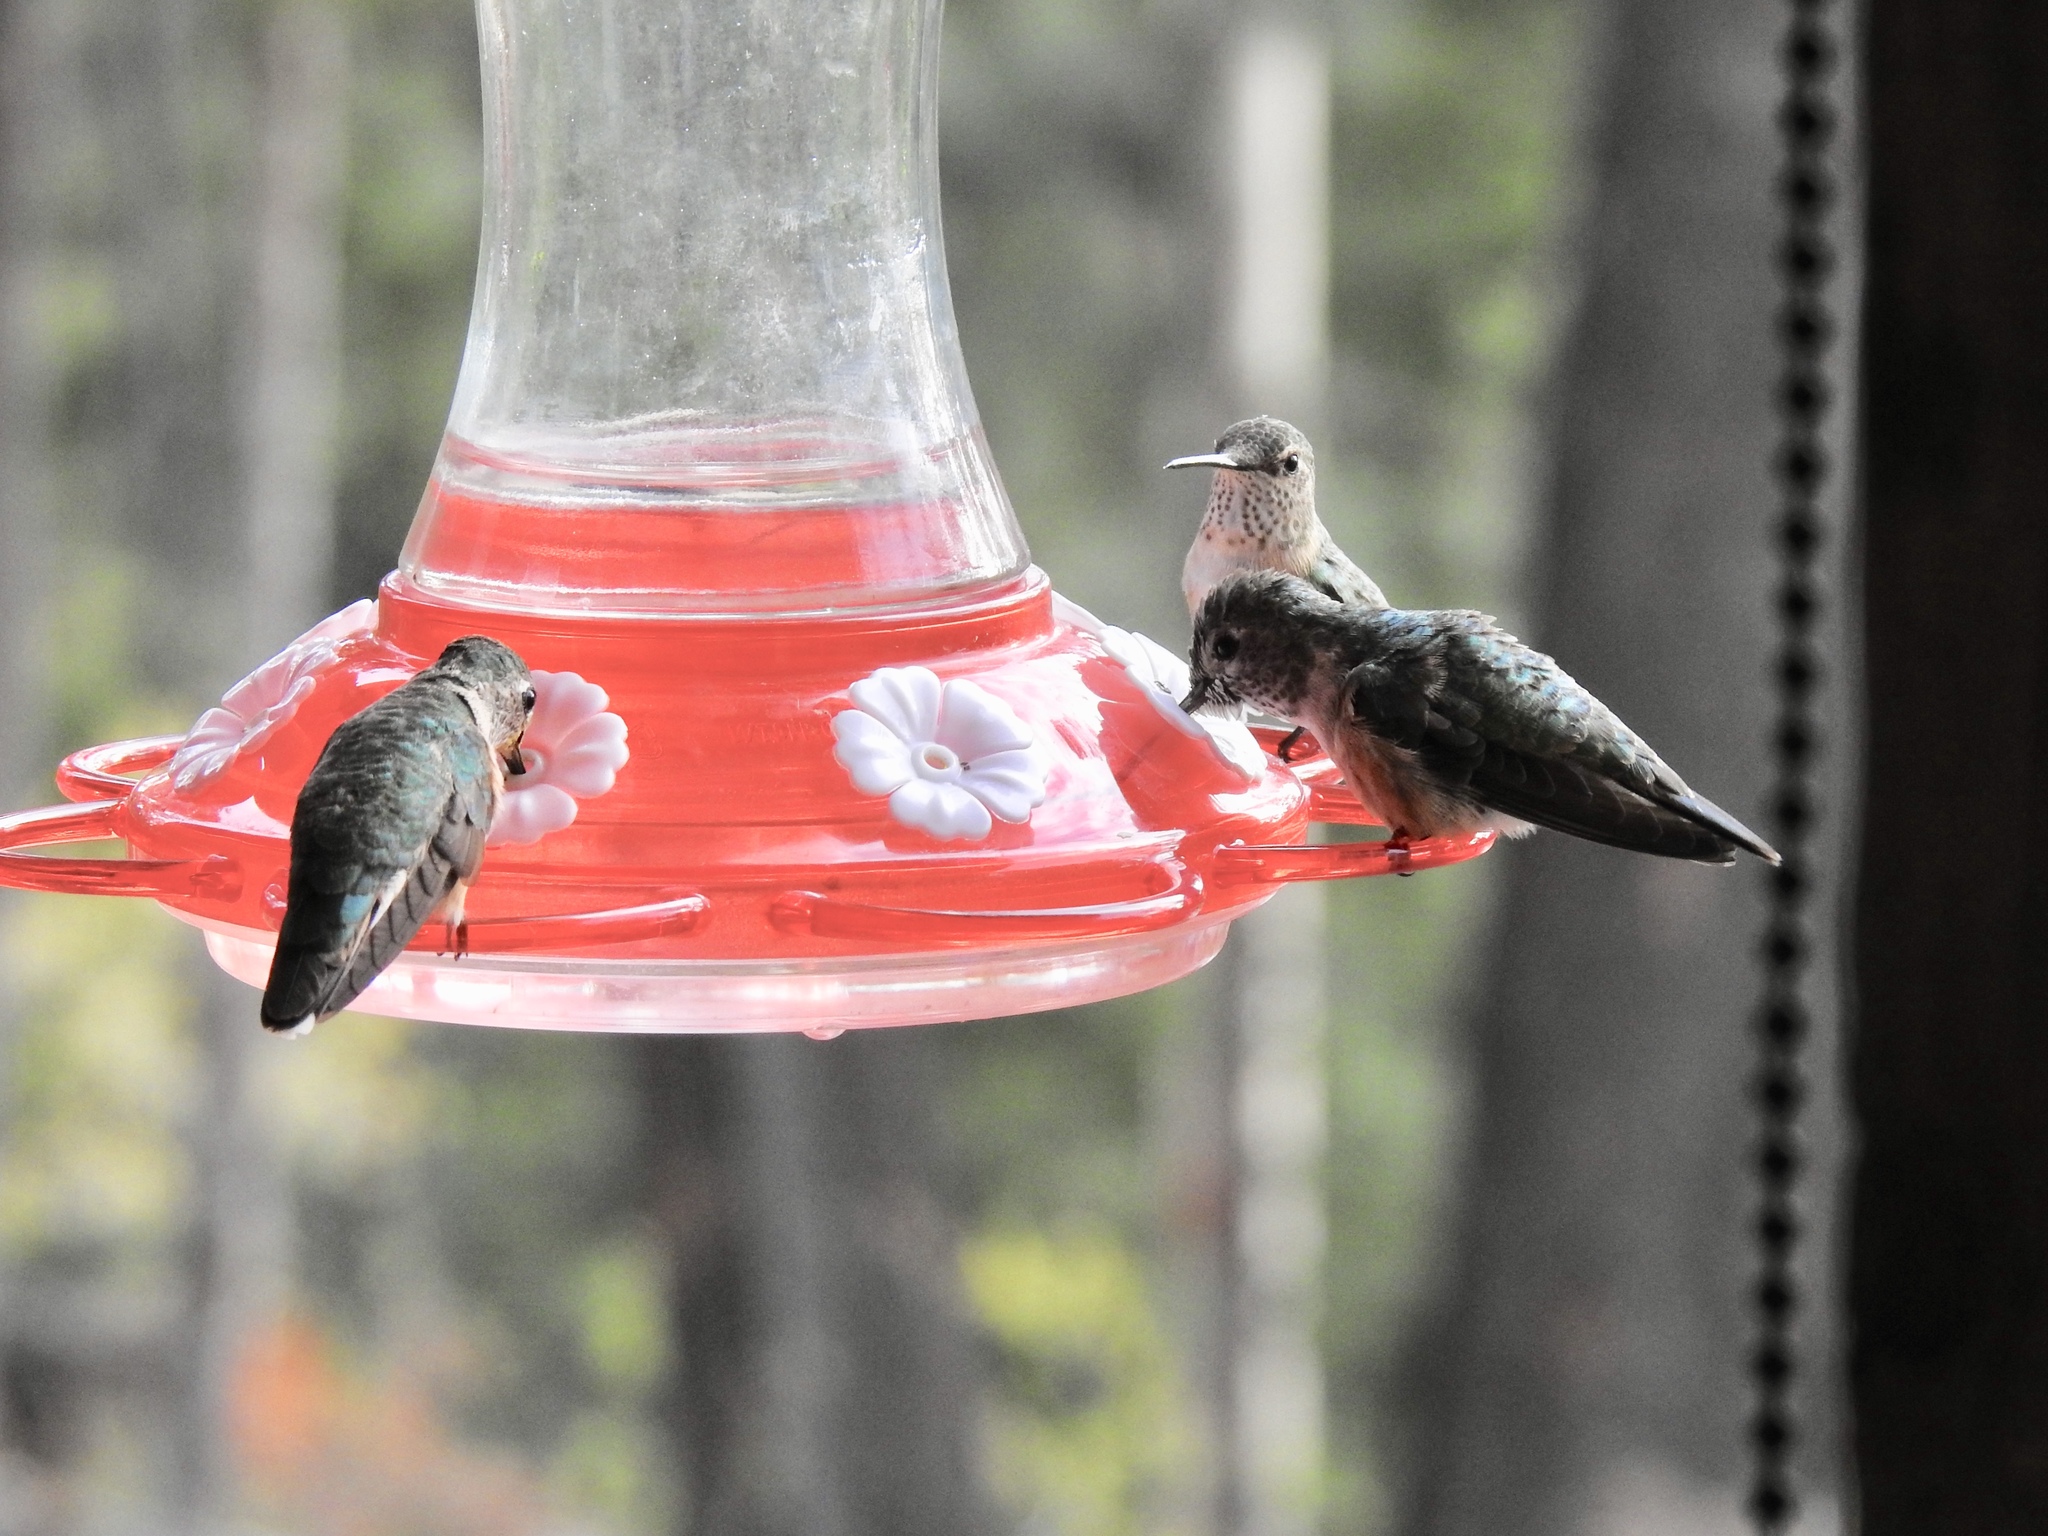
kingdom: Animalia
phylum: Chordata
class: Aves
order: Apodiformes
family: Trochilidae
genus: Selasphorus
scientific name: Selasphorus platycercus
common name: Broad-tailed hummingbird
